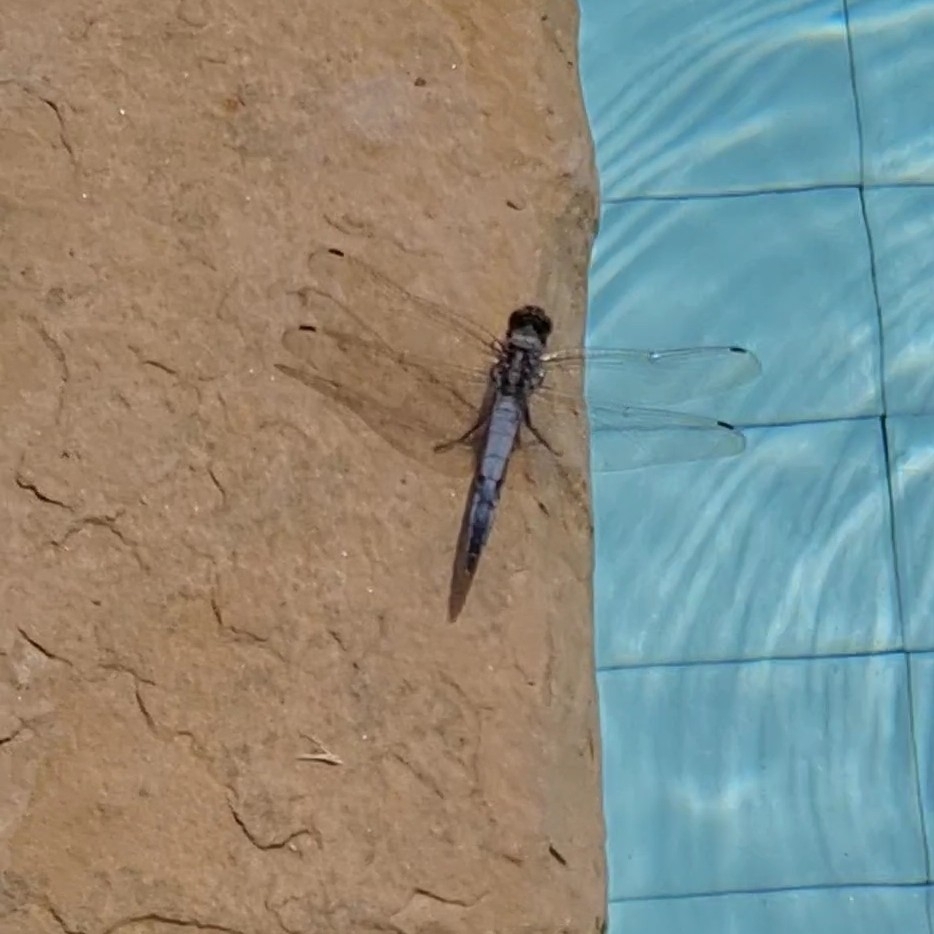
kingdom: Animalia
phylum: Arthropoda
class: Insecta
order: Odonata
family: Libellulidae
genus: Orthetrum
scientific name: Orthetrum cancellatum
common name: Black-tailed skimmer
